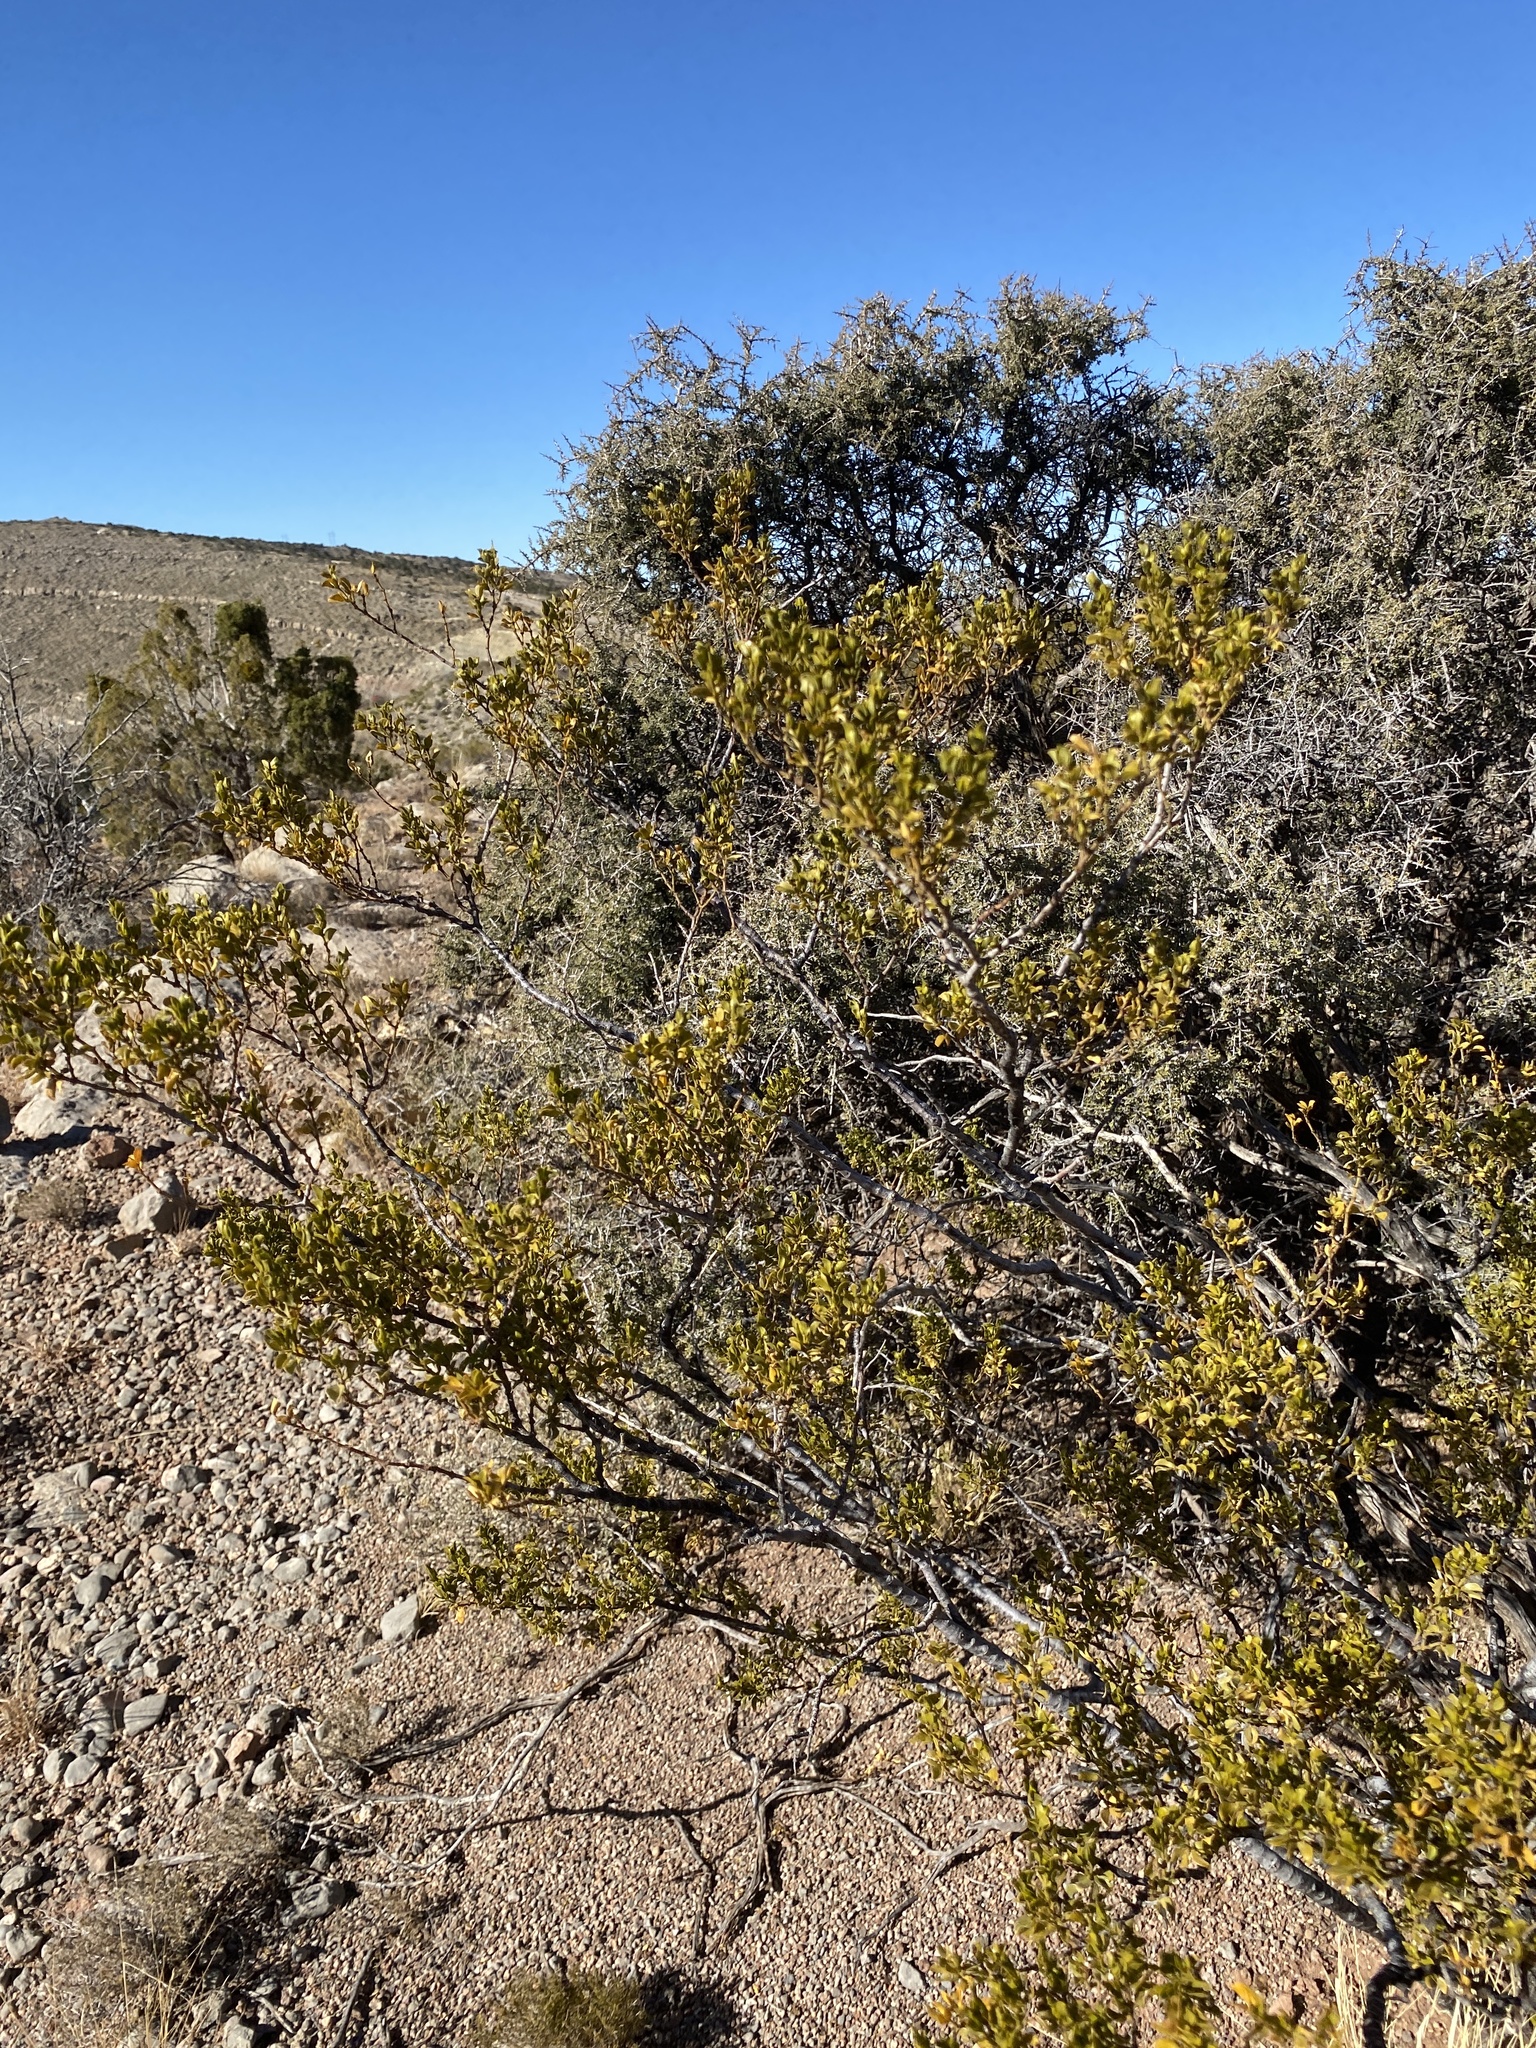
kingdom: Plantae
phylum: Tracheophyta
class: Magnoliopsida
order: Zygophyllales
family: Zygophyllaceae
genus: Larrea
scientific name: Larrea tridentata
